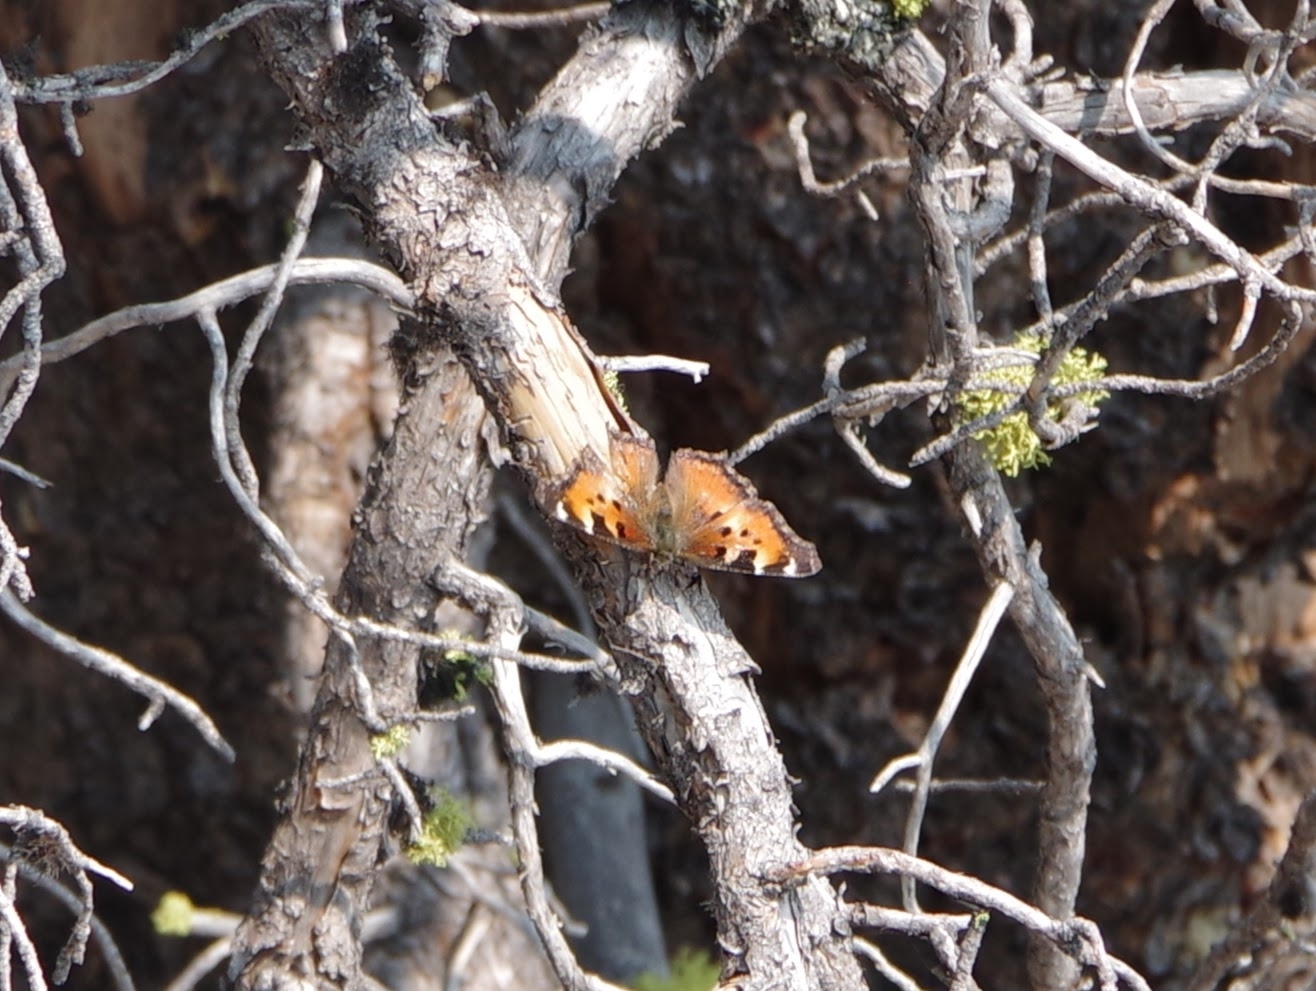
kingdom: Animalia
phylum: Arthropoda
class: Insecta
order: Lepidoptera
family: Nymphalidae
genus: Nymphalis
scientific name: Nymphalis californica
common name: California tortoiseshell
